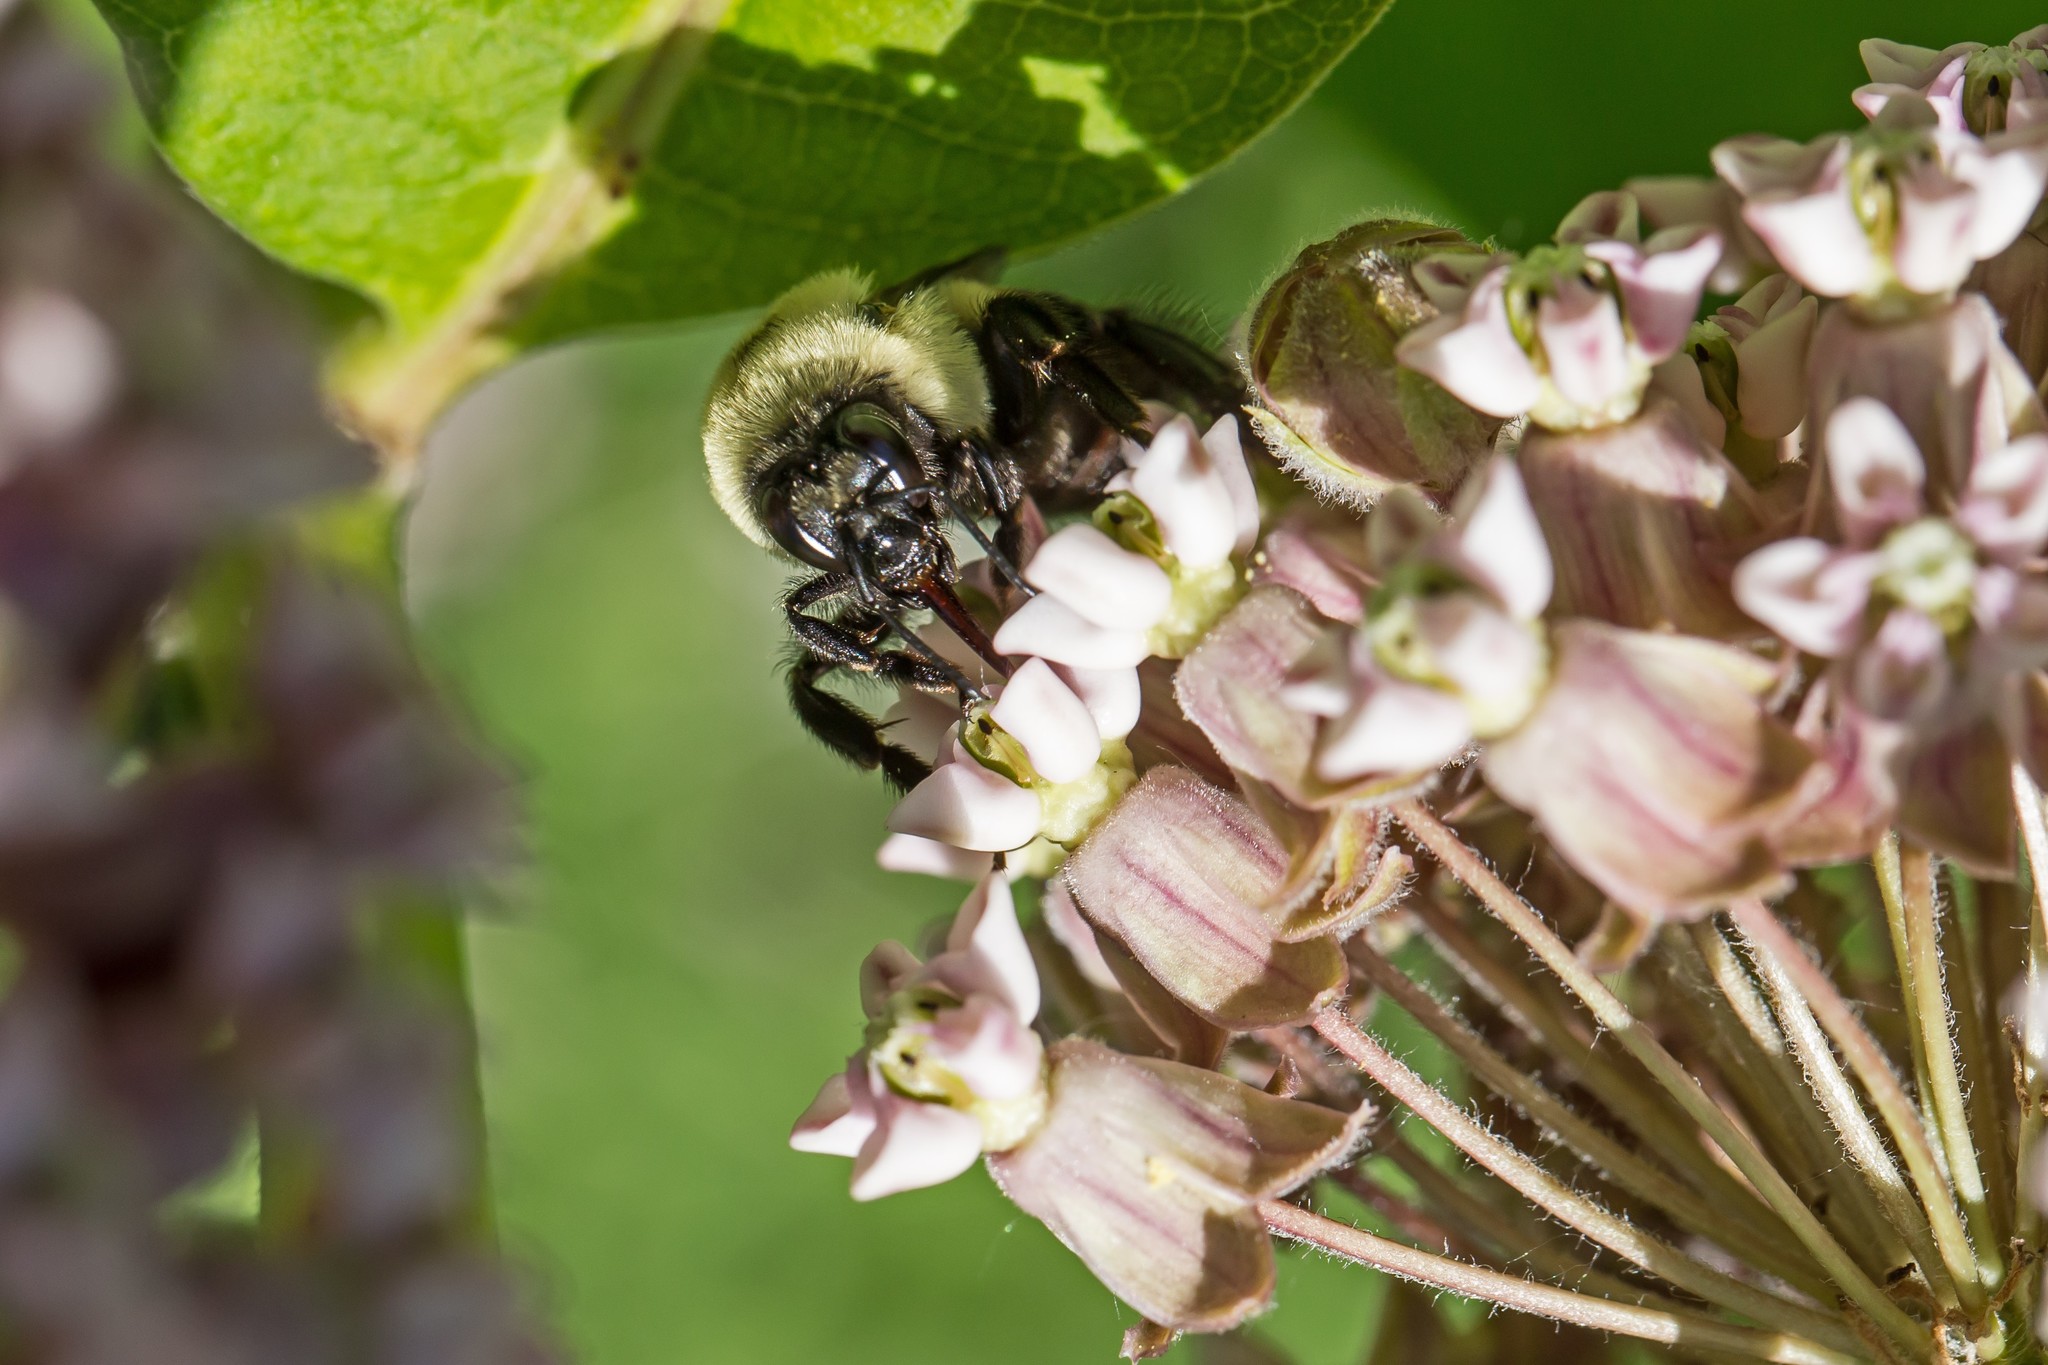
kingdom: Animalia
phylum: Arthropoda
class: Insecta
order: Hymenoptera
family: Apidae
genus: Bombus
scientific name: Bombus griseocollis
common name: Brown-belted bumble bee
